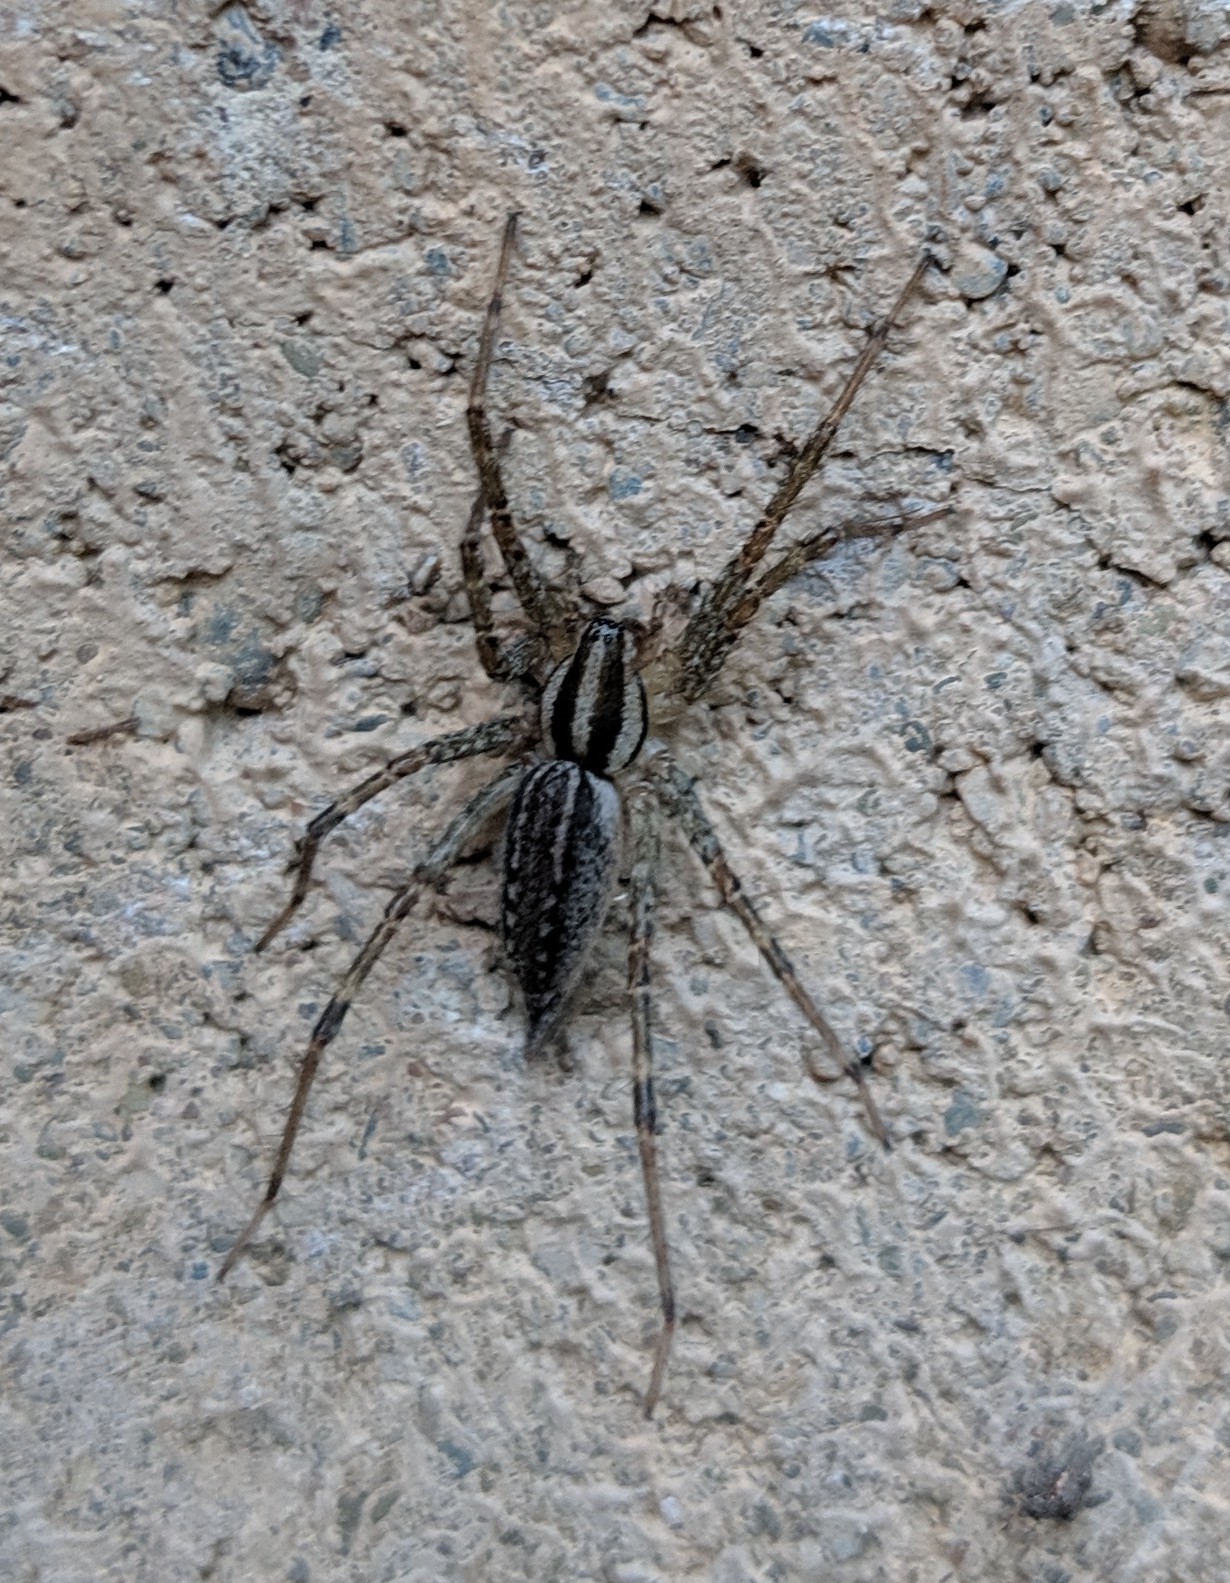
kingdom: Animalia
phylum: Arthropoda
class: Arachnida
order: Araneae
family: Agelenidae
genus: Agelenopsis
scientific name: Agelenopsis
